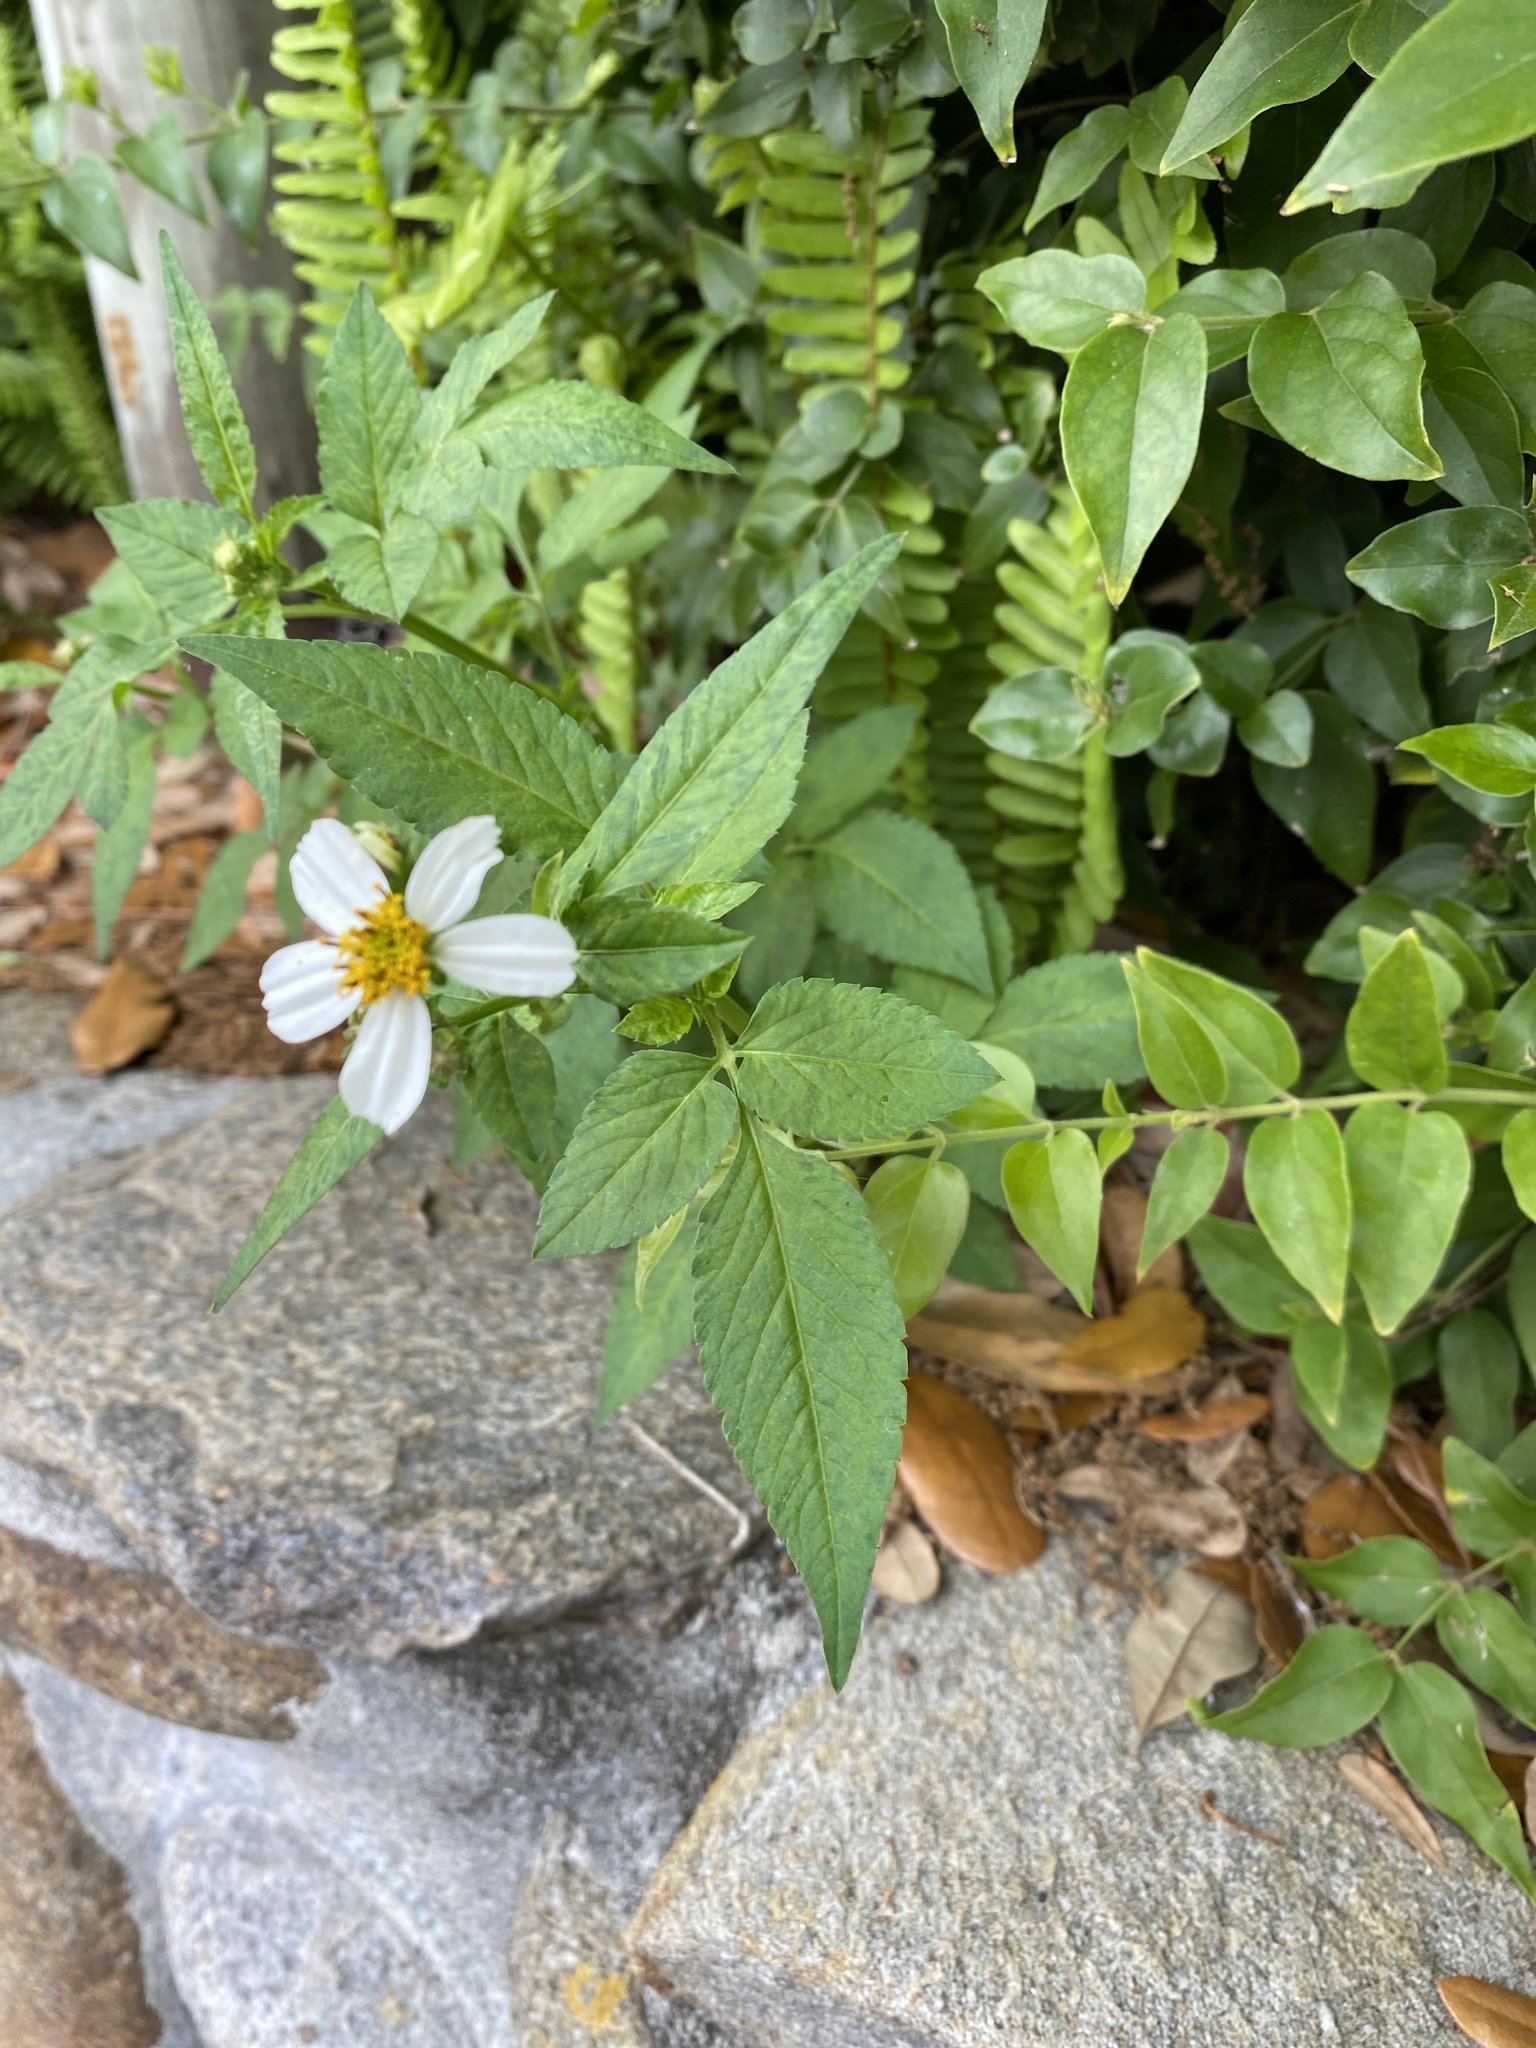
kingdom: Plantae
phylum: Tracheophyta
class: Magnoliopsida
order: Asterales
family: Asteraceae
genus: Bidens
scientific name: Bidens alba
